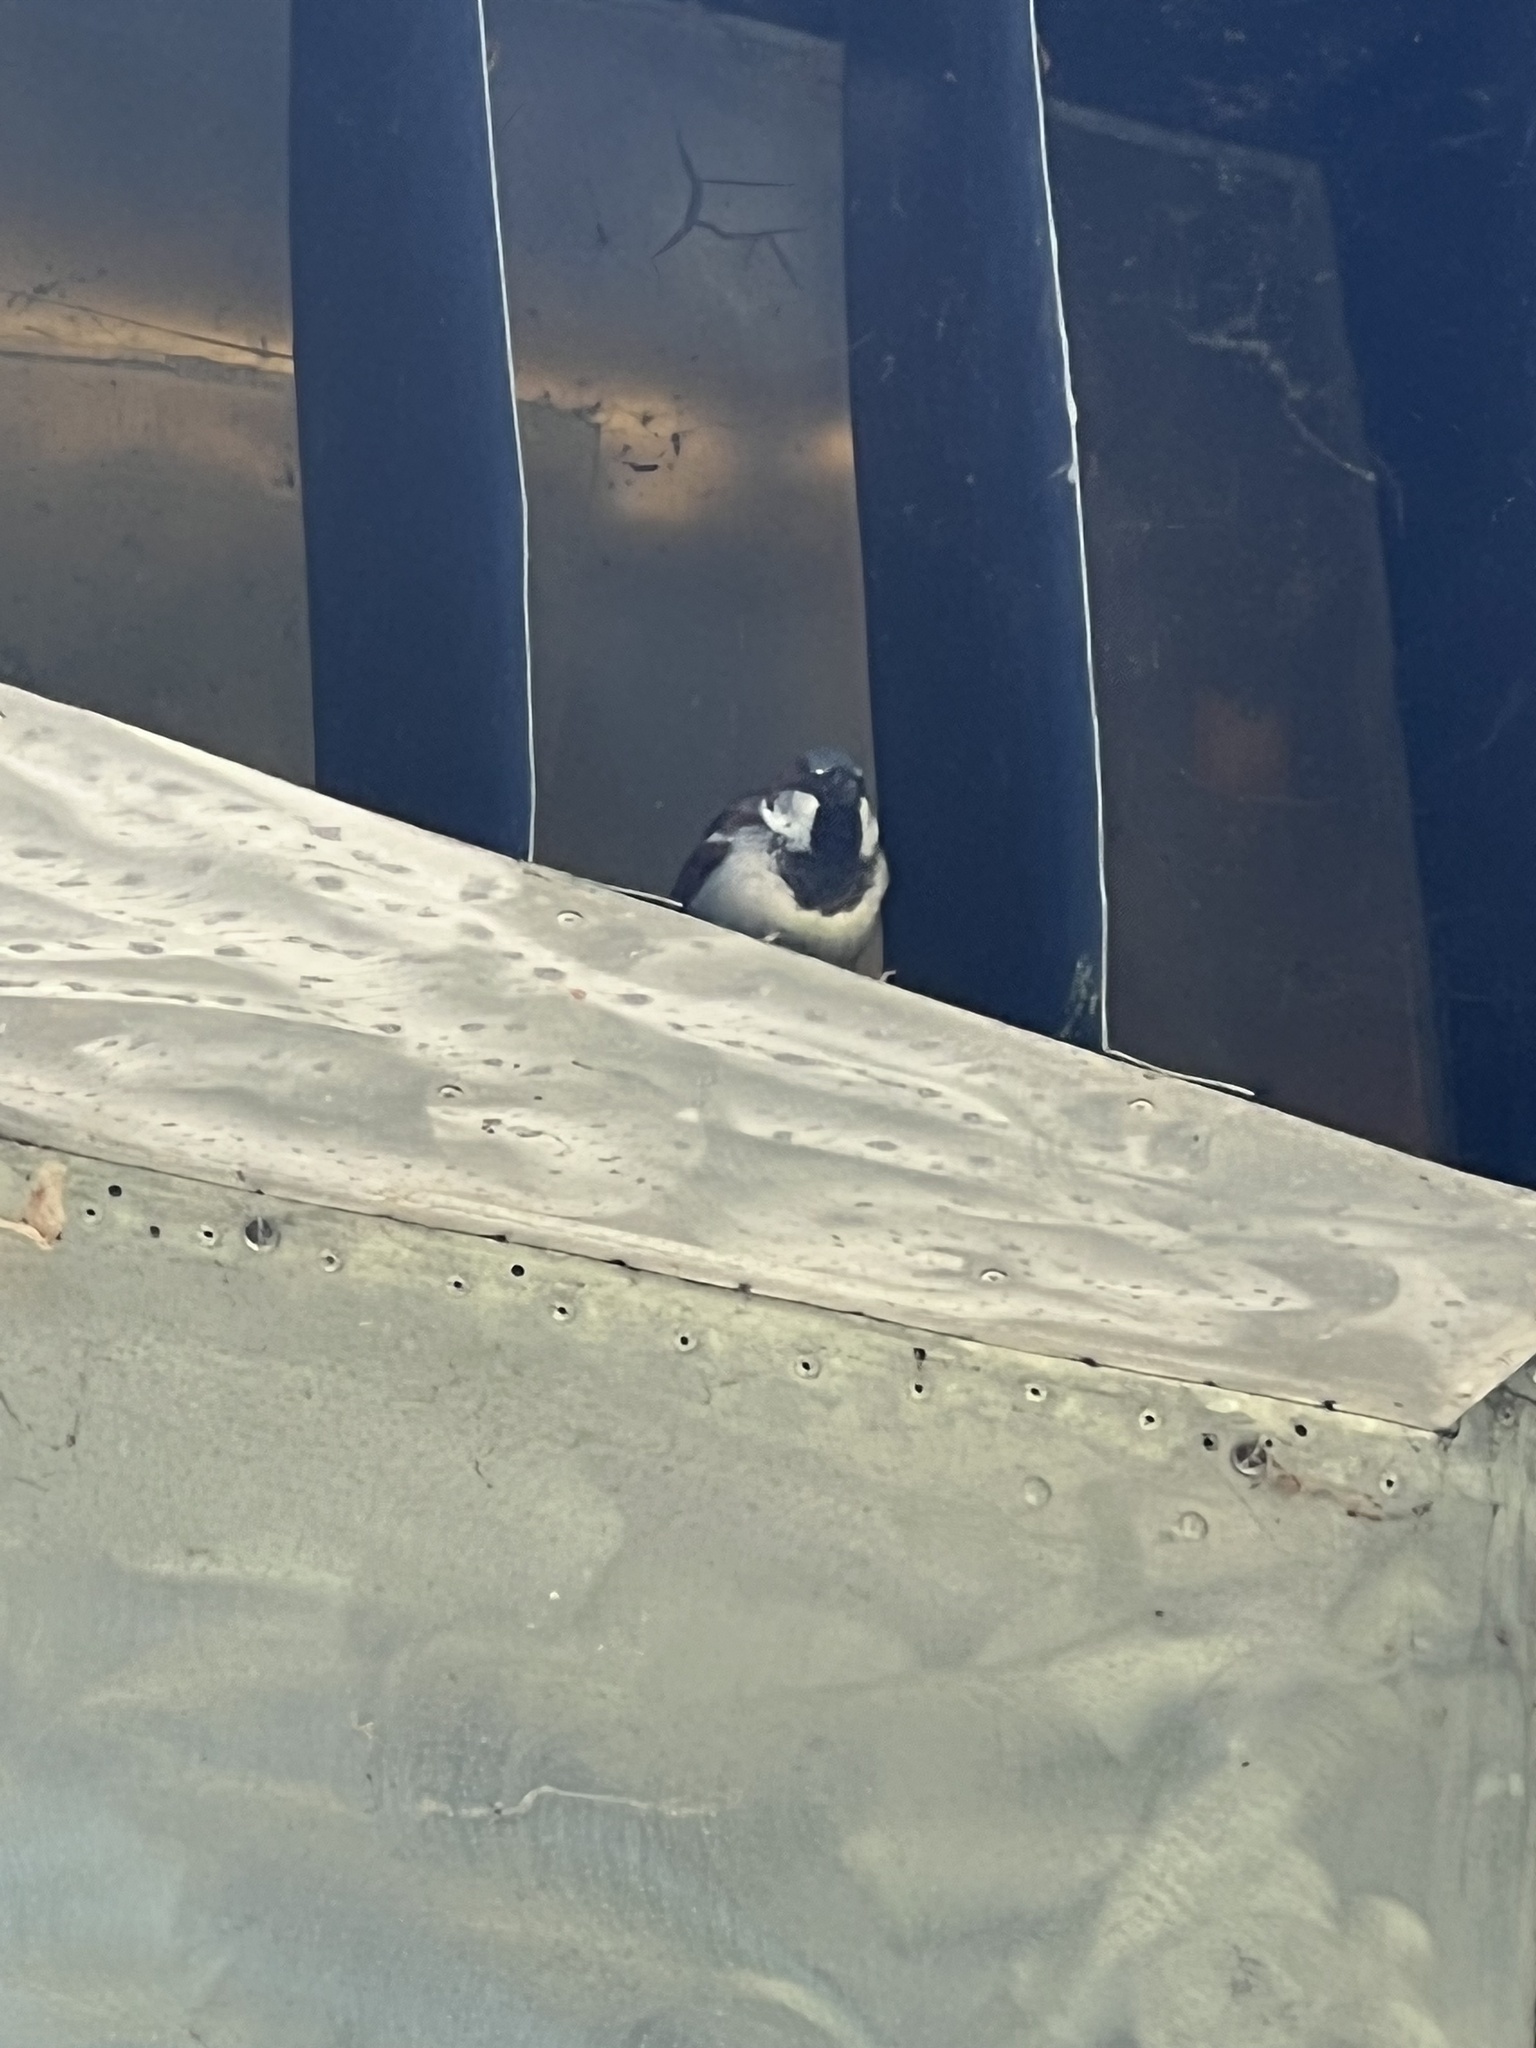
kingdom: Animalia
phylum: Chordata
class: Aves
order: Passeriformes
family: Passeridae
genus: Passer
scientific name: Passer domesticus
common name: House sparrow
